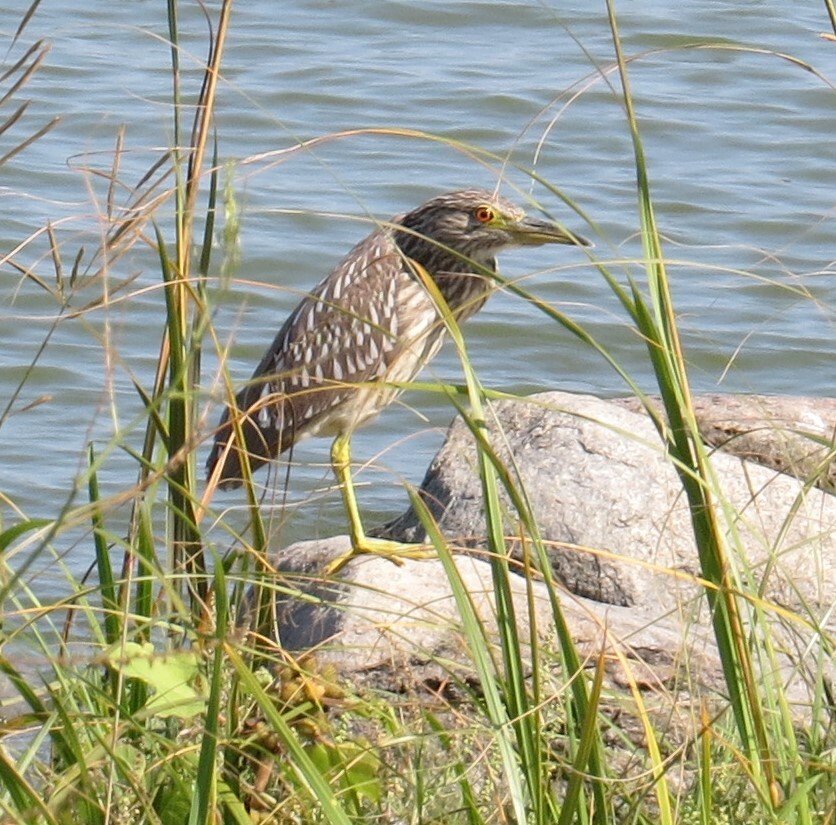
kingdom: Animalia
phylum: Chordata
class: Aves
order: Pelecaniformes
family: Ardeidae
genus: Nycticorax
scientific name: Nycticorax nycticorax
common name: Black-crowned night heron
